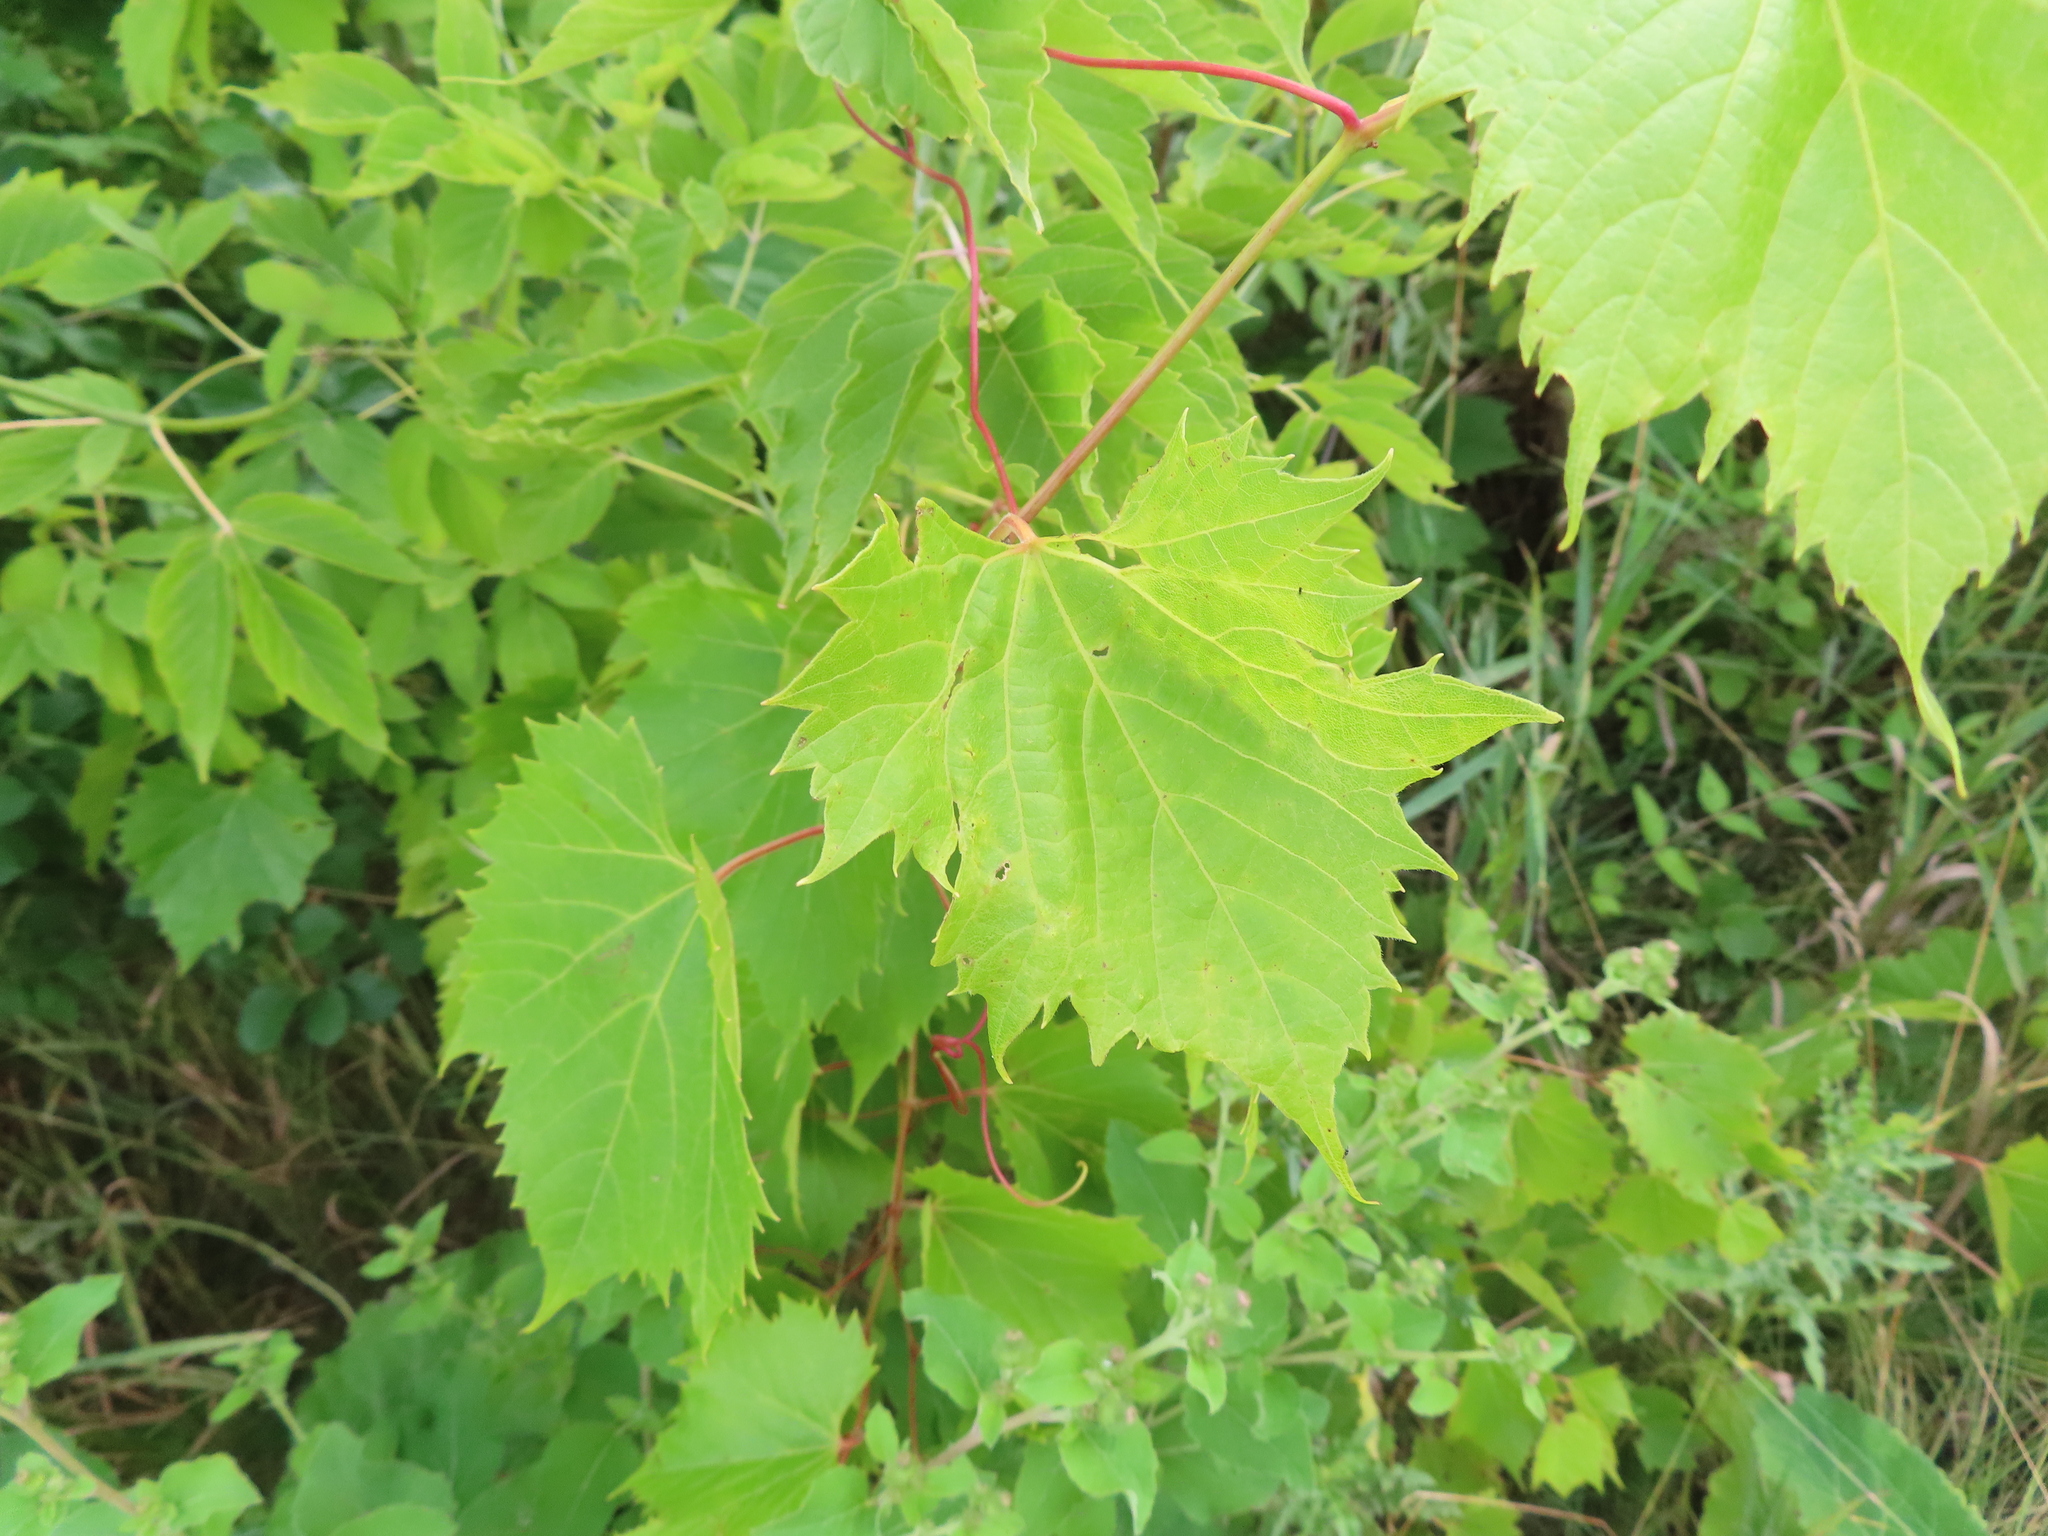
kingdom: Plantae
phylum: Tracheophyta
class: Magnoliopsida
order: Vitales
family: Vitaceae
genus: Vitis
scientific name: Vitis riparia
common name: Frost grape
